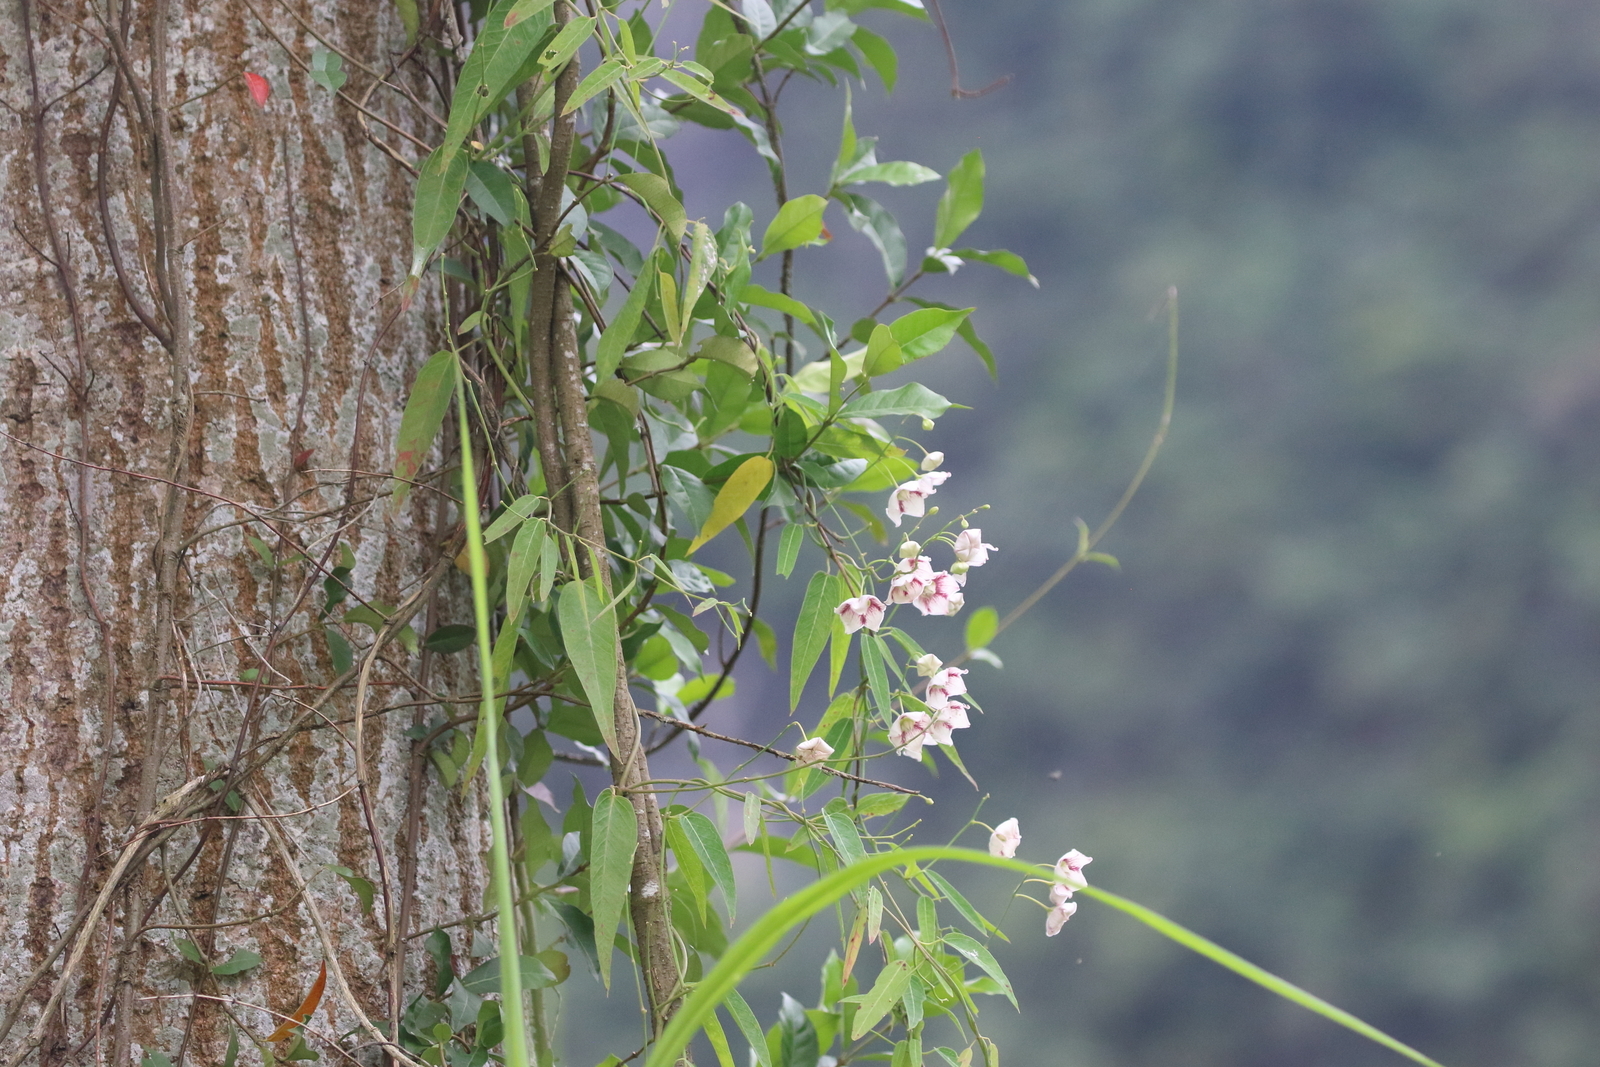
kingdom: Plantae
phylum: Tracheophyta
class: Magnoliopsida
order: Gentianales
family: Apocynaceae
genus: Oxystelma
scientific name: Oxystelma wallichii
